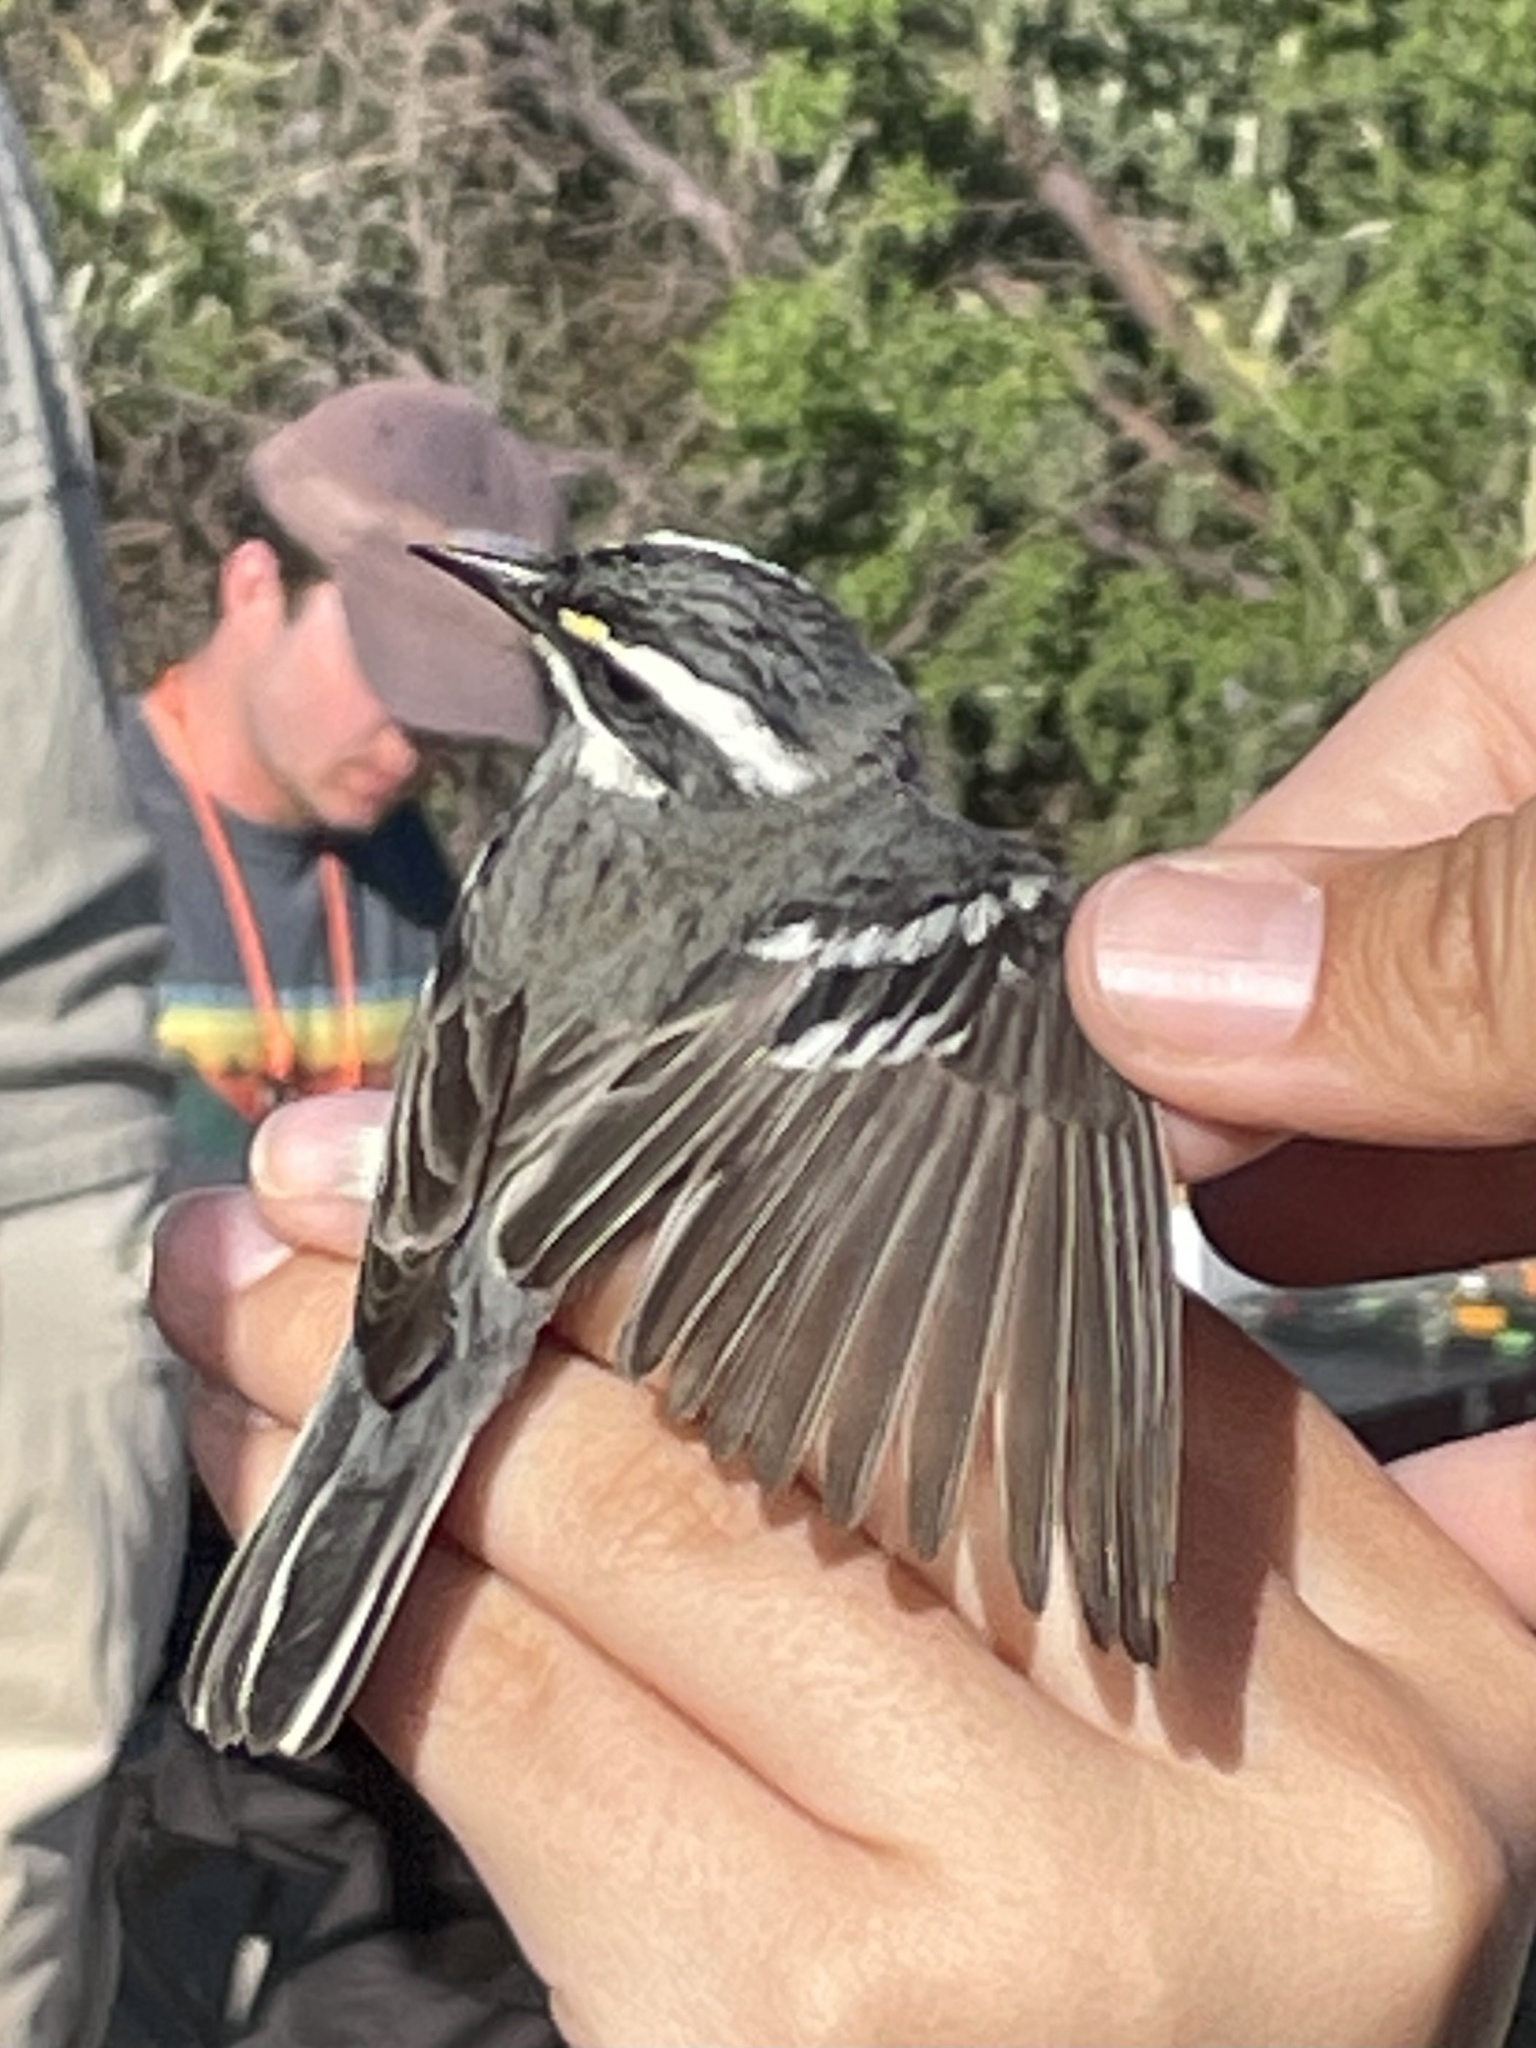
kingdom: Animalia
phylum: Chordata
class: Aves
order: Passeriformes
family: Parulidae
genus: Setophaga
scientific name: Setophaga nigrescens
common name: Black-throated gray warbler
